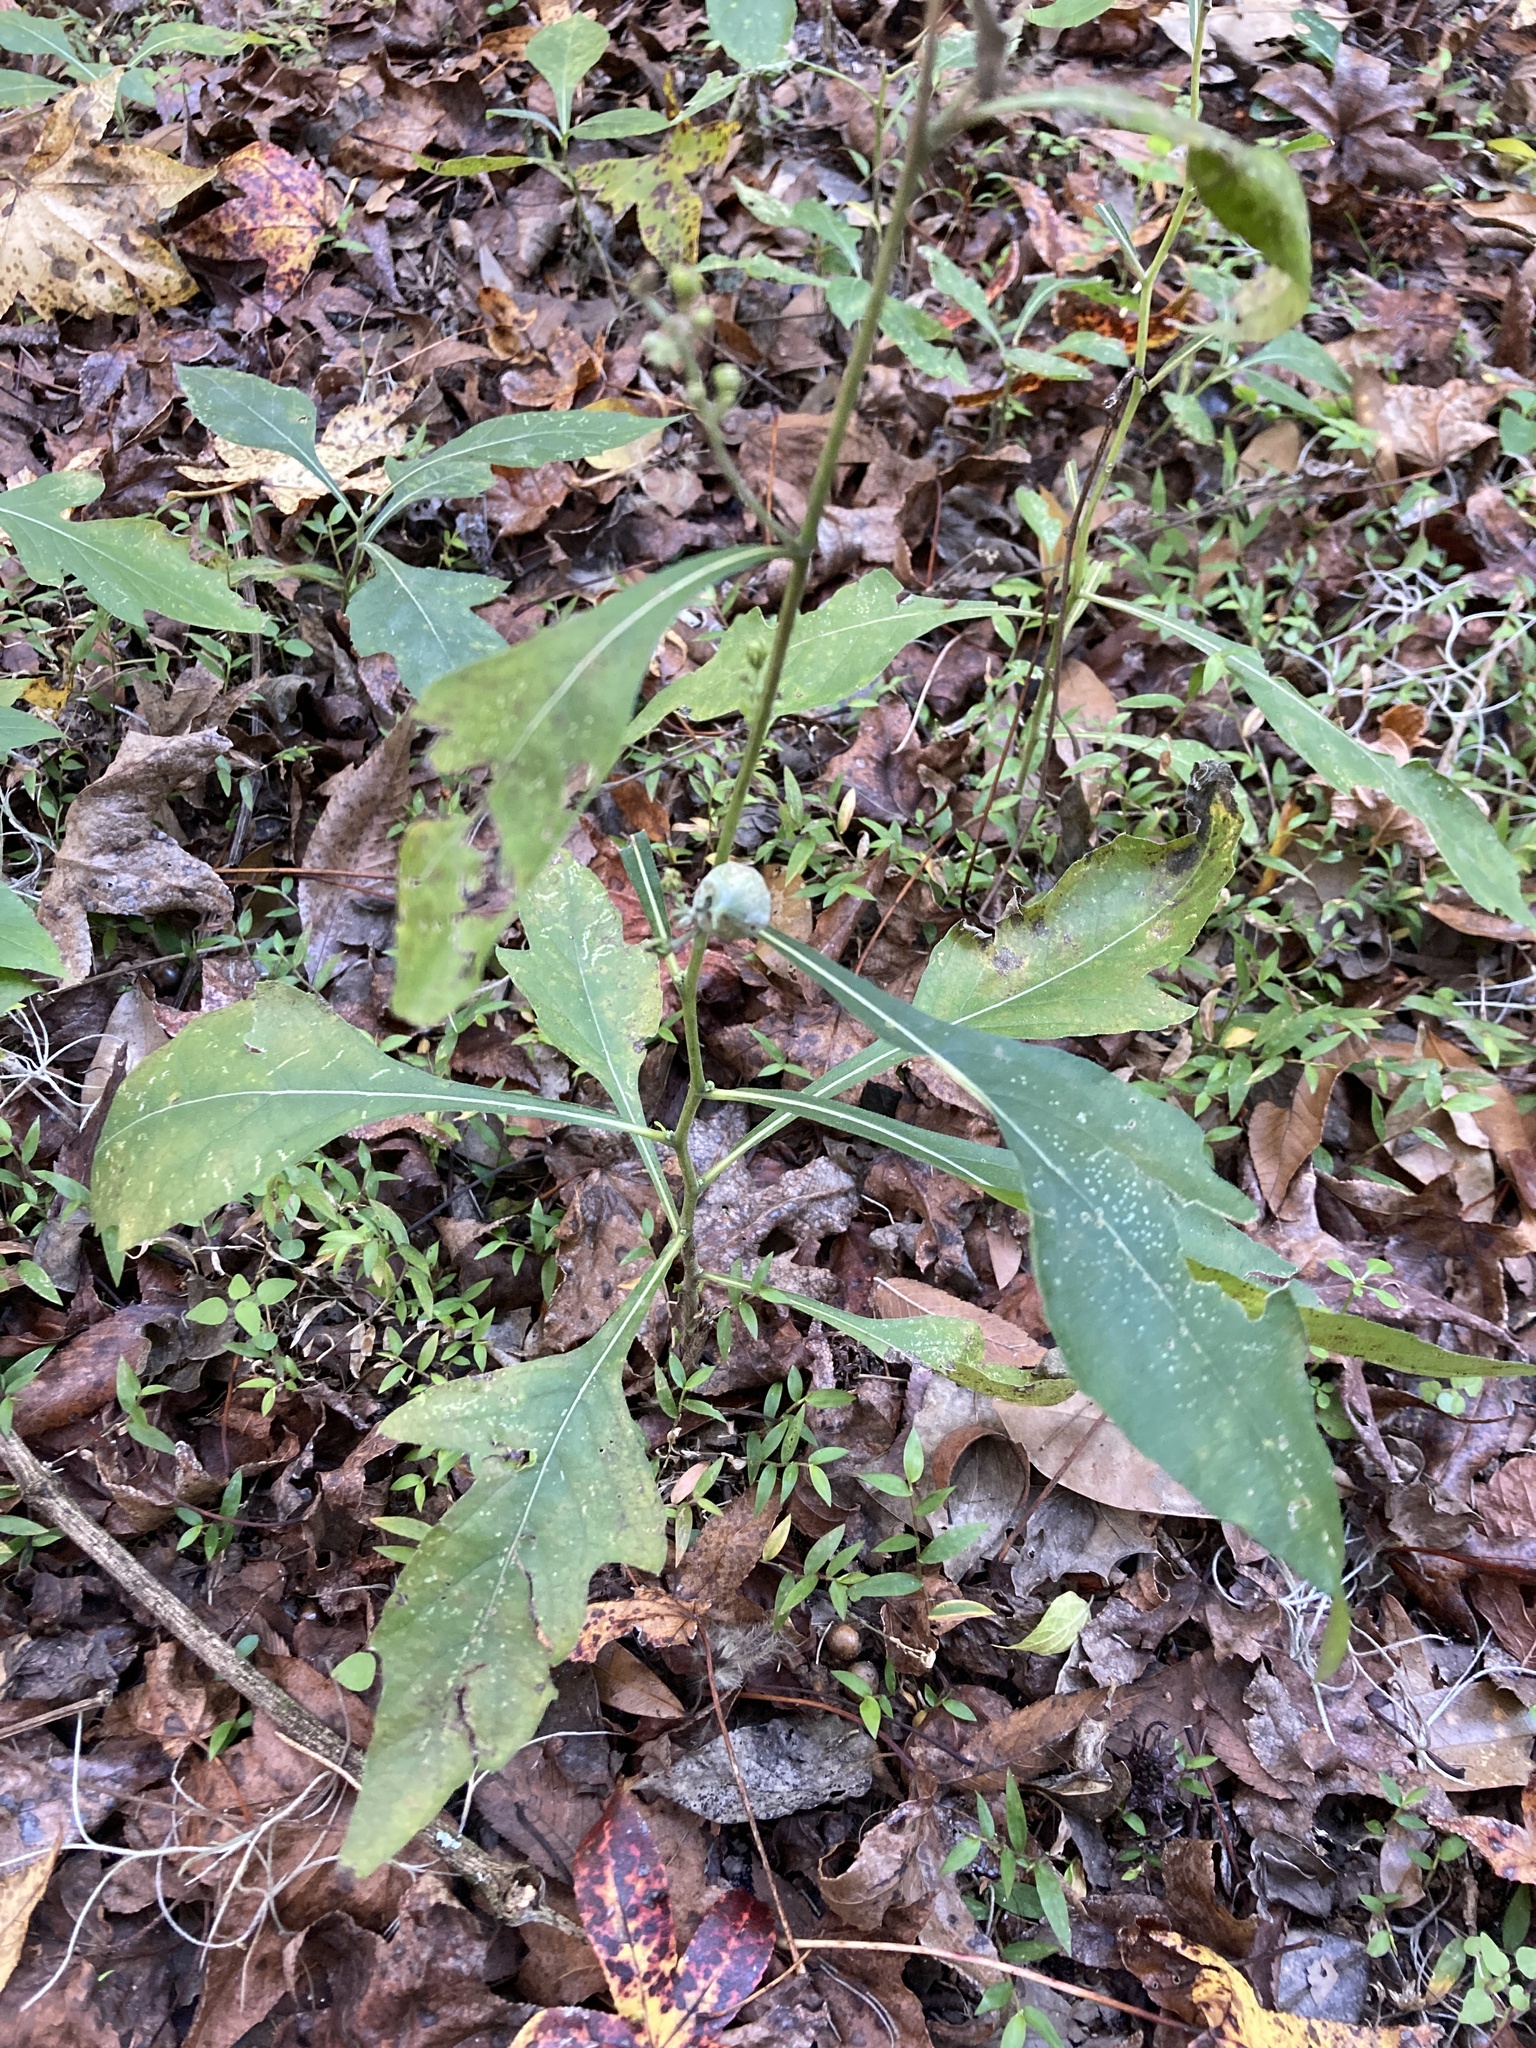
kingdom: Plantae
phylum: Tracheophyta
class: Magnoliopsida
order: Asterales
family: Asteraceae
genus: Verbesina
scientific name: Verbesina virginica
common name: Frostweed
